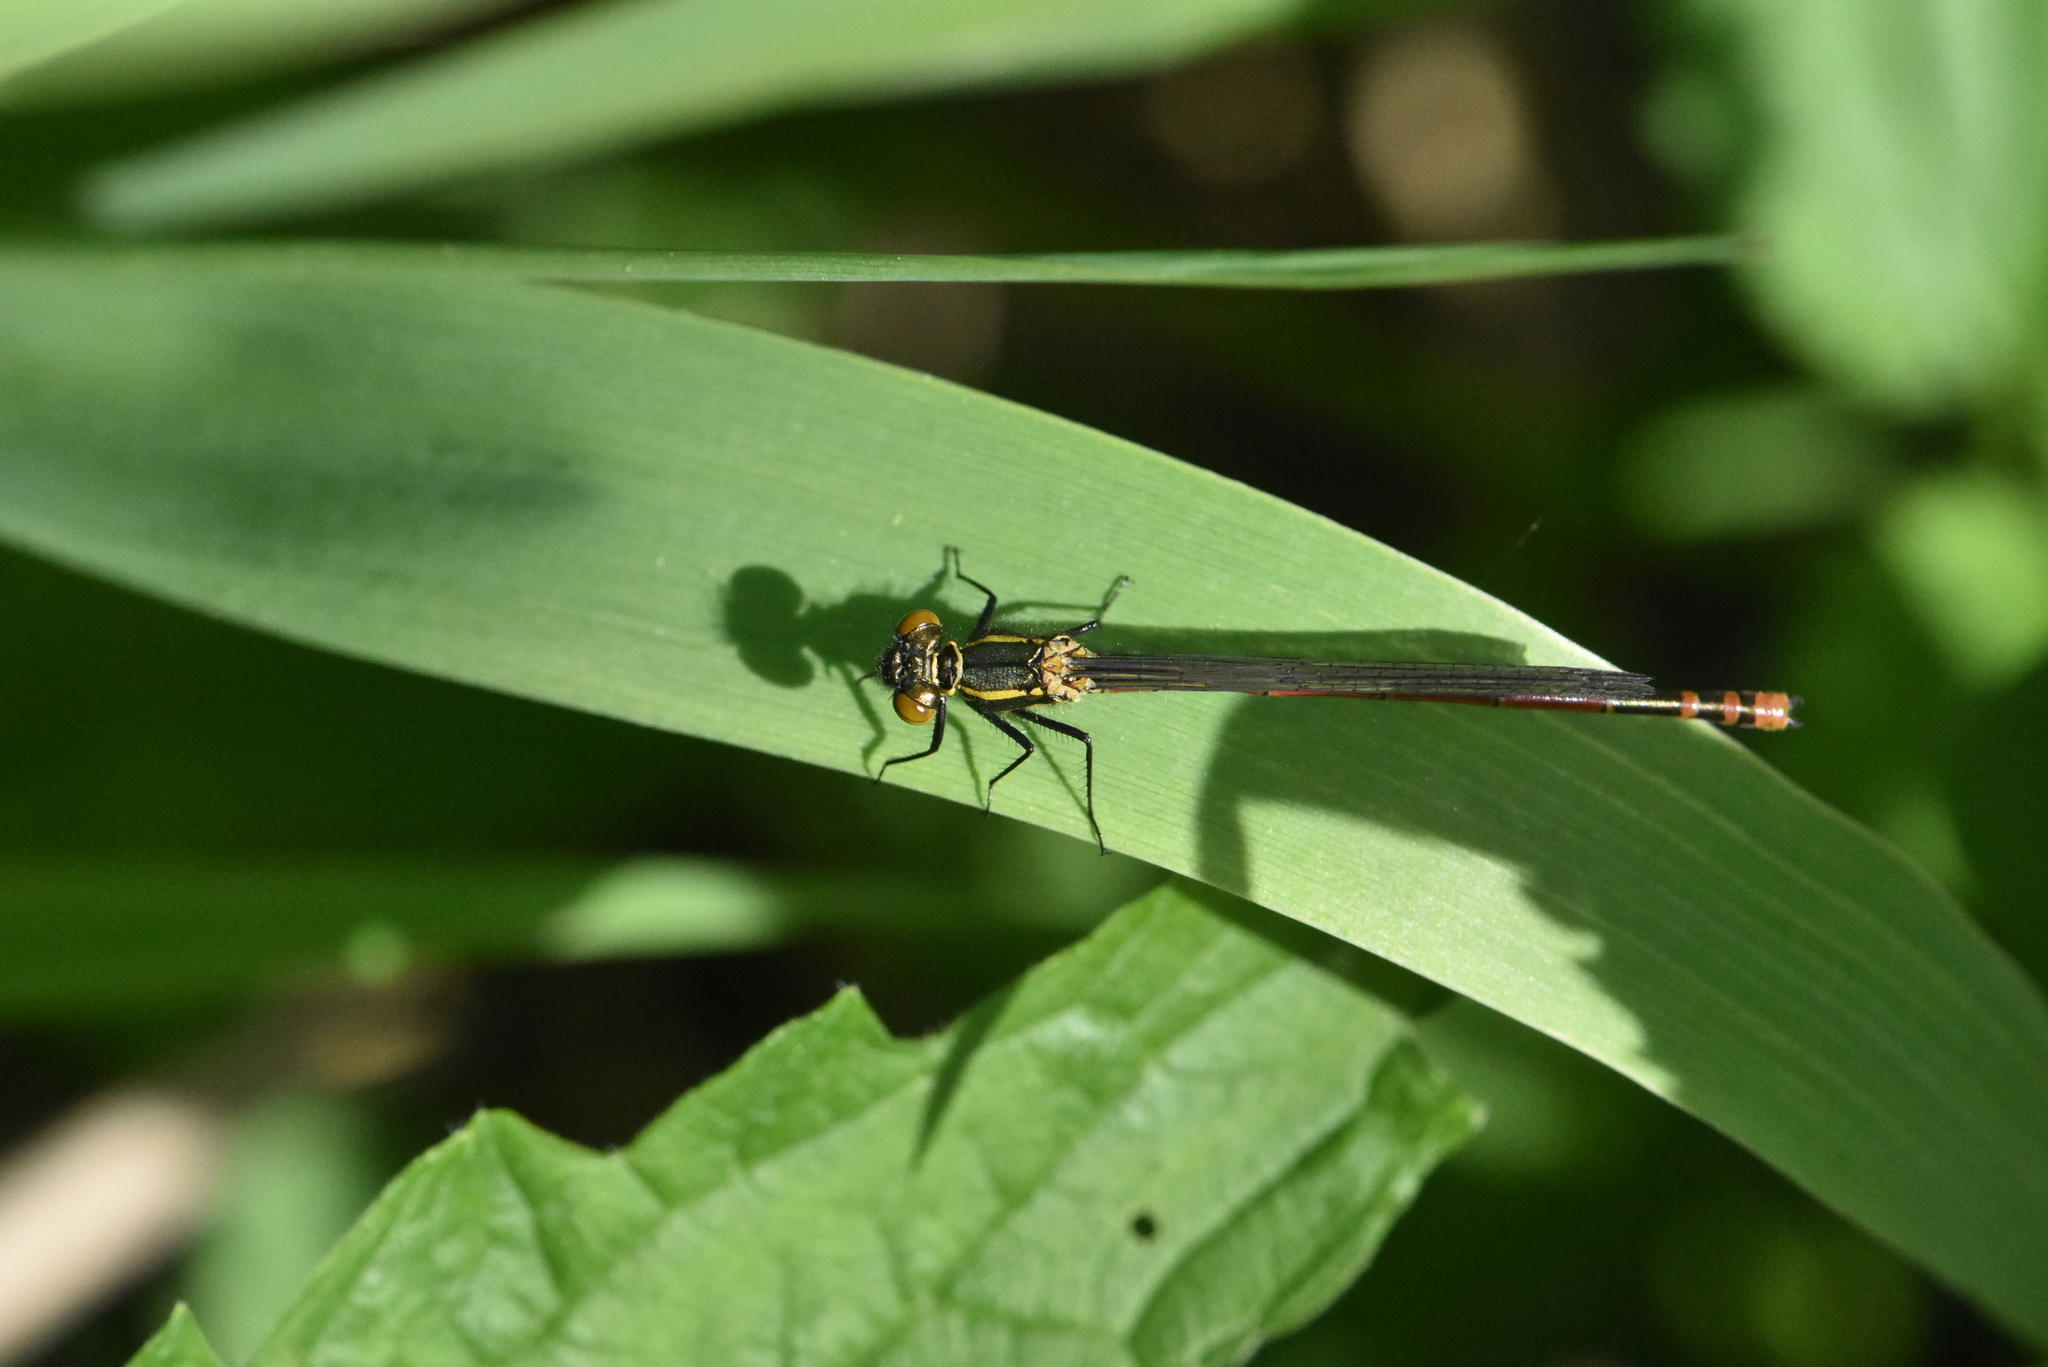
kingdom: Animalia
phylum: Arthropoda
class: Insecta
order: Odonata
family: Coenagrionidae
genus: Pyrrhosoma
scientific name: Pyrrhosoma nymphula
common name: Large red damsel
